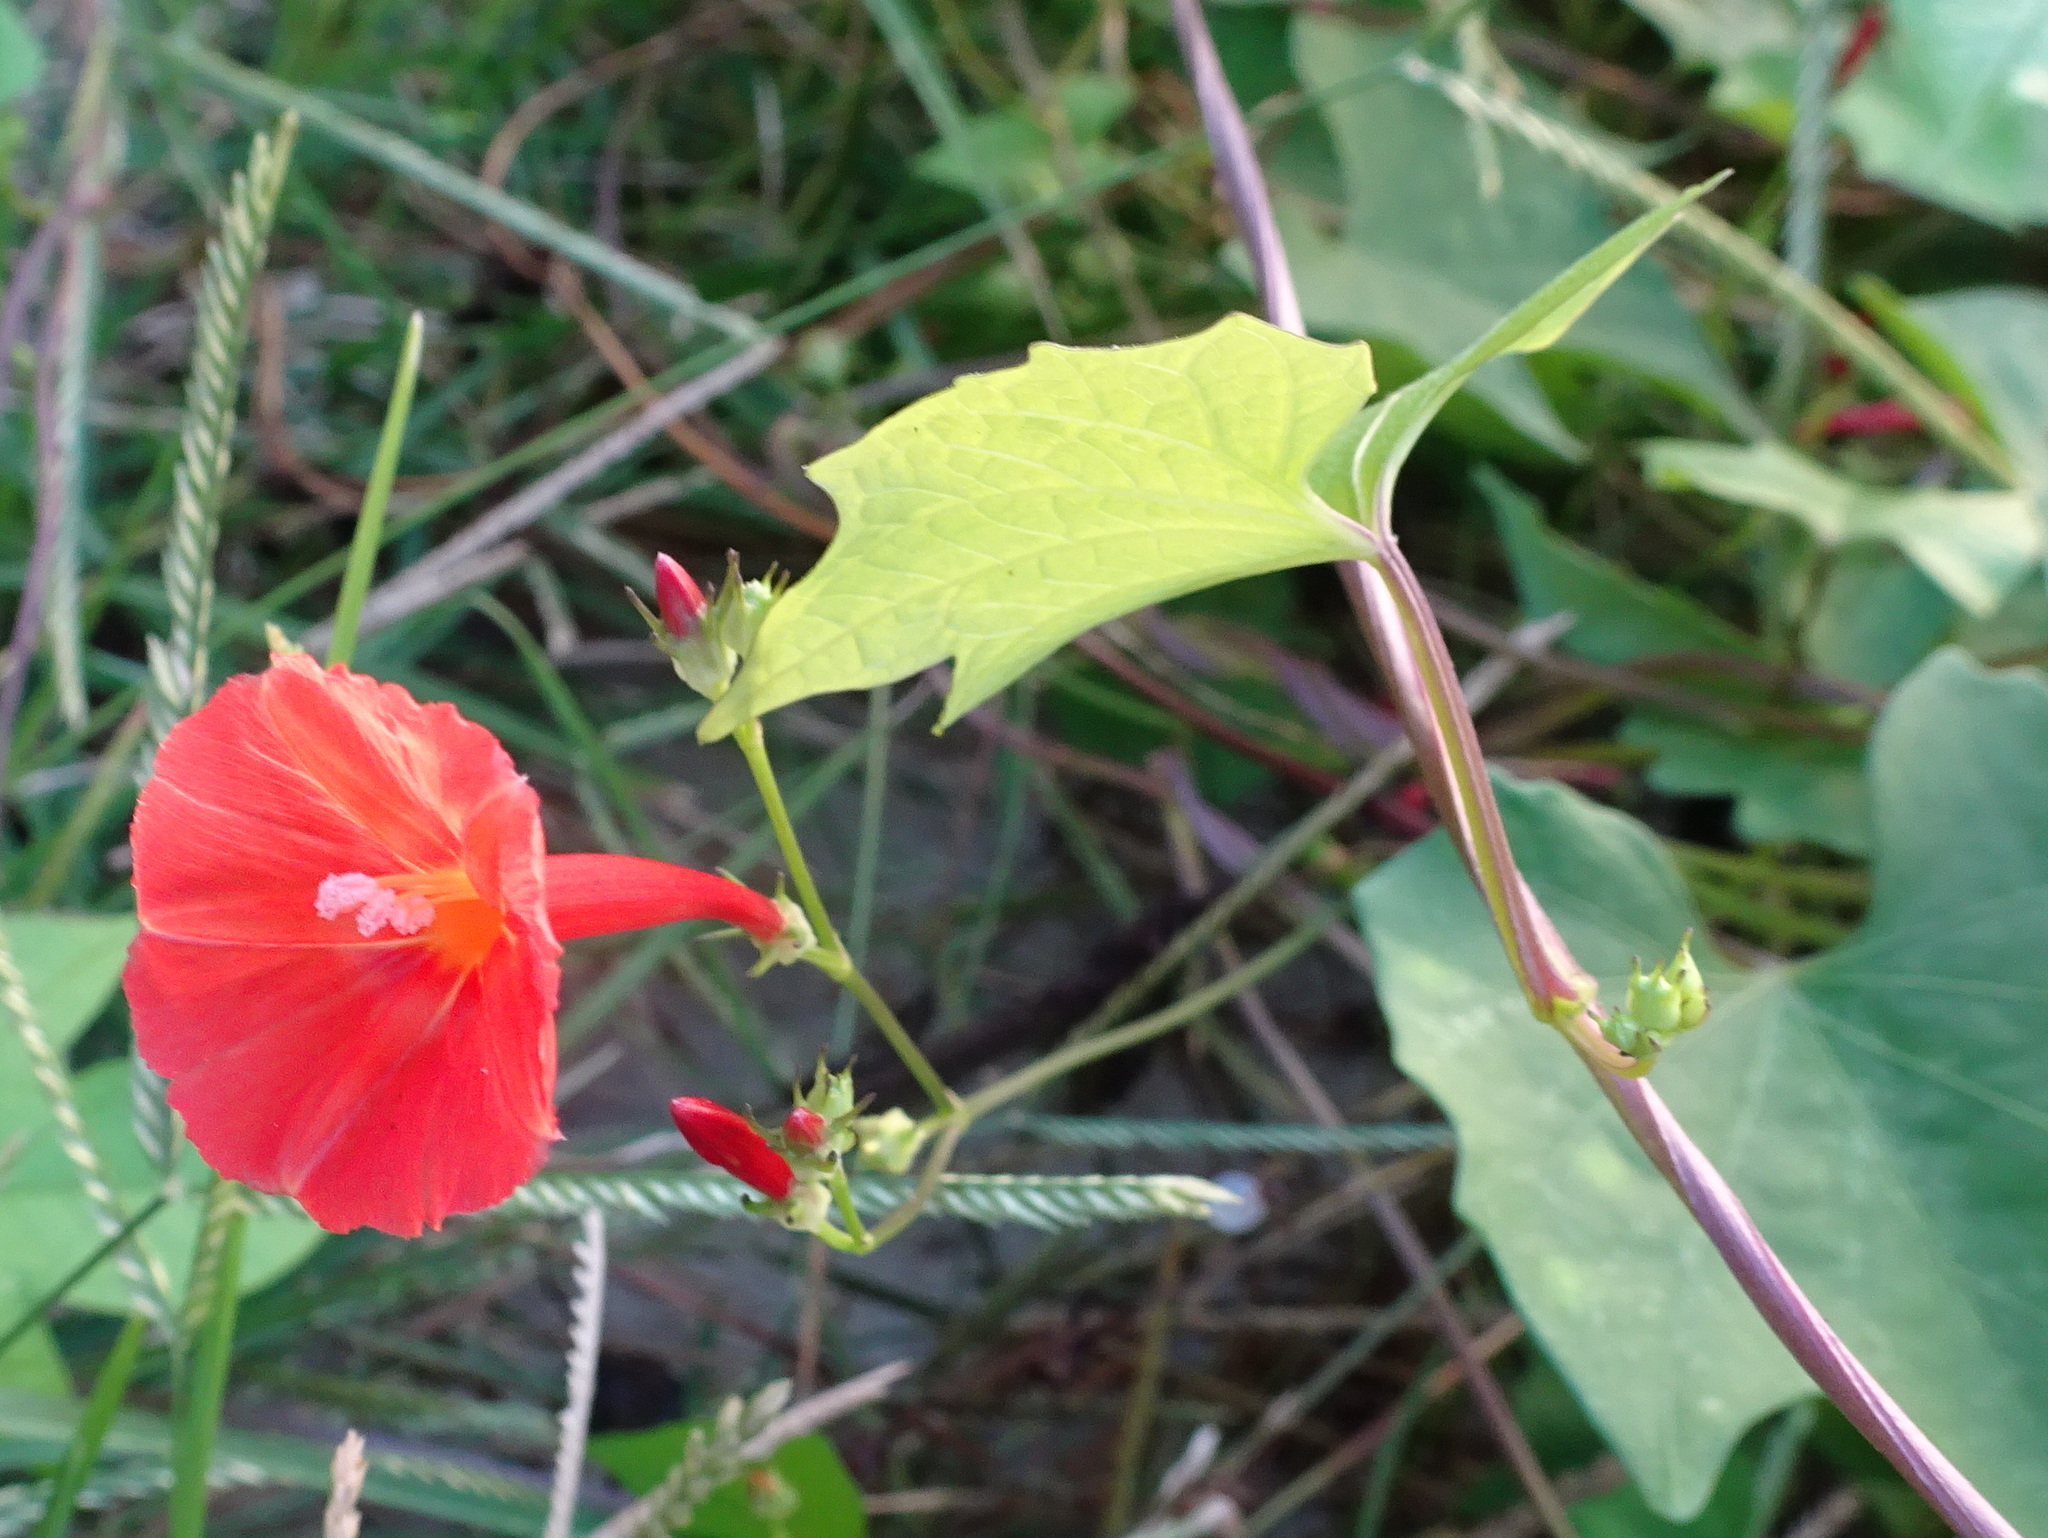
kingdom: Plantae
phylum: Tracheophyta
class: Magnoliopsida
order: Solanales
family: Convolvulaceae
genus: Ipomoea
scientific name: Ipomoea hederifolia
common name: Ivy-leaf morning-glory
